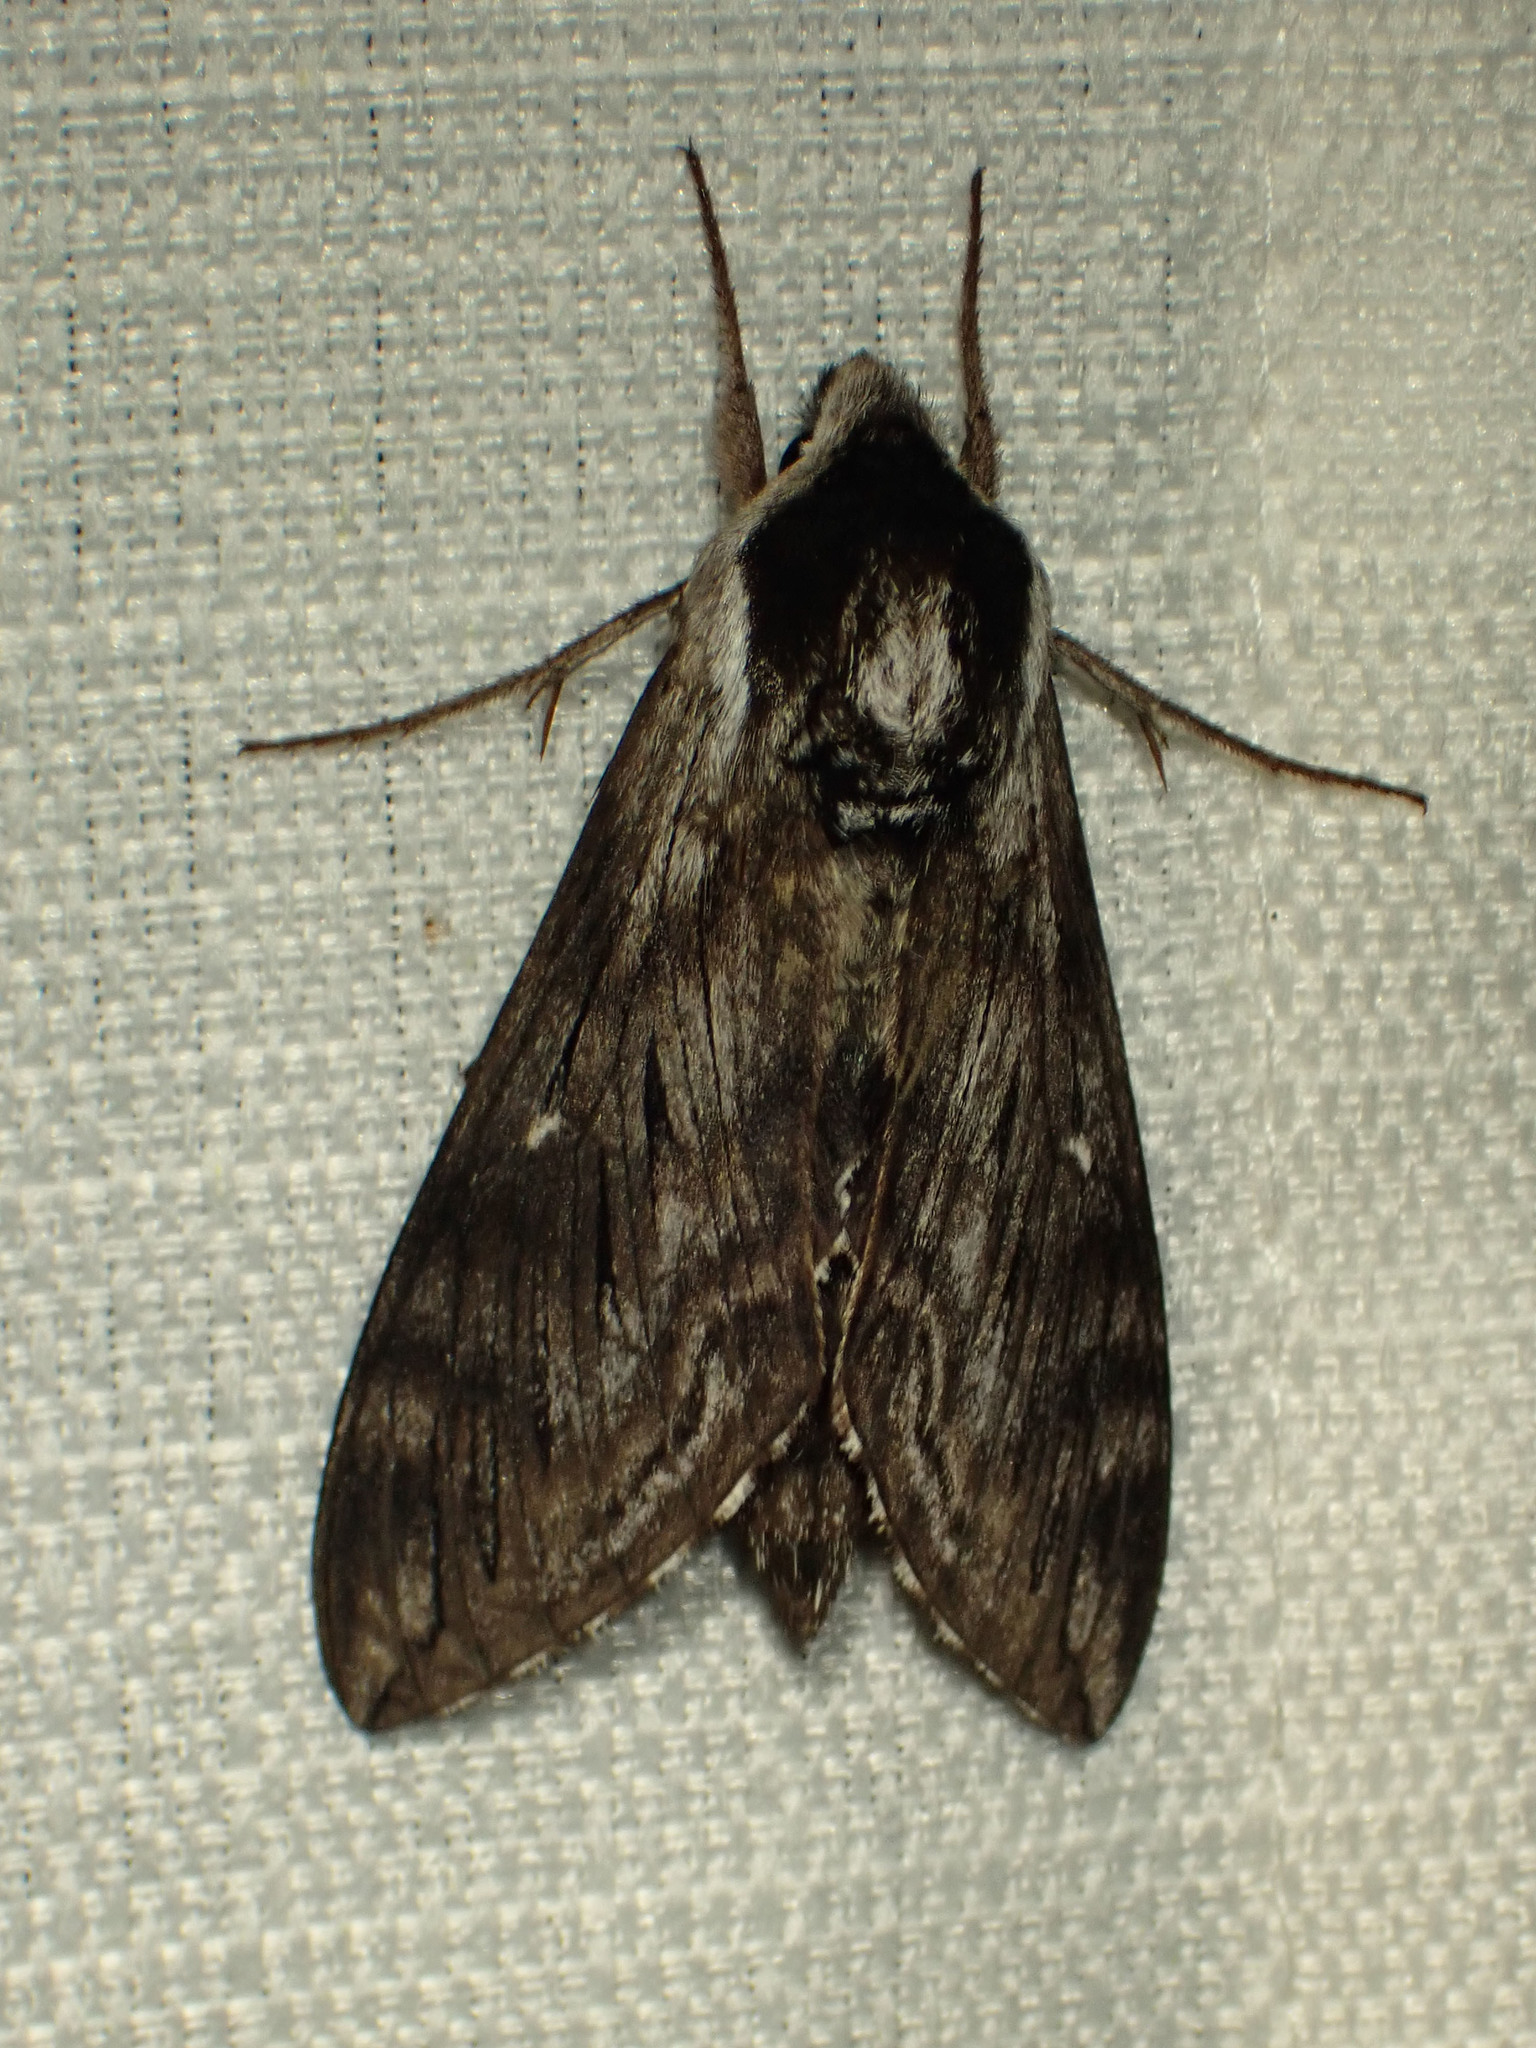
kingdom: Animalia
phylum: Arthropoda
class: Insecta
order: Lepidoptera
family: Sphingidae
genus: Sphinx
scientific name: Sphinx poecila
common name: Northern apple sphinx
